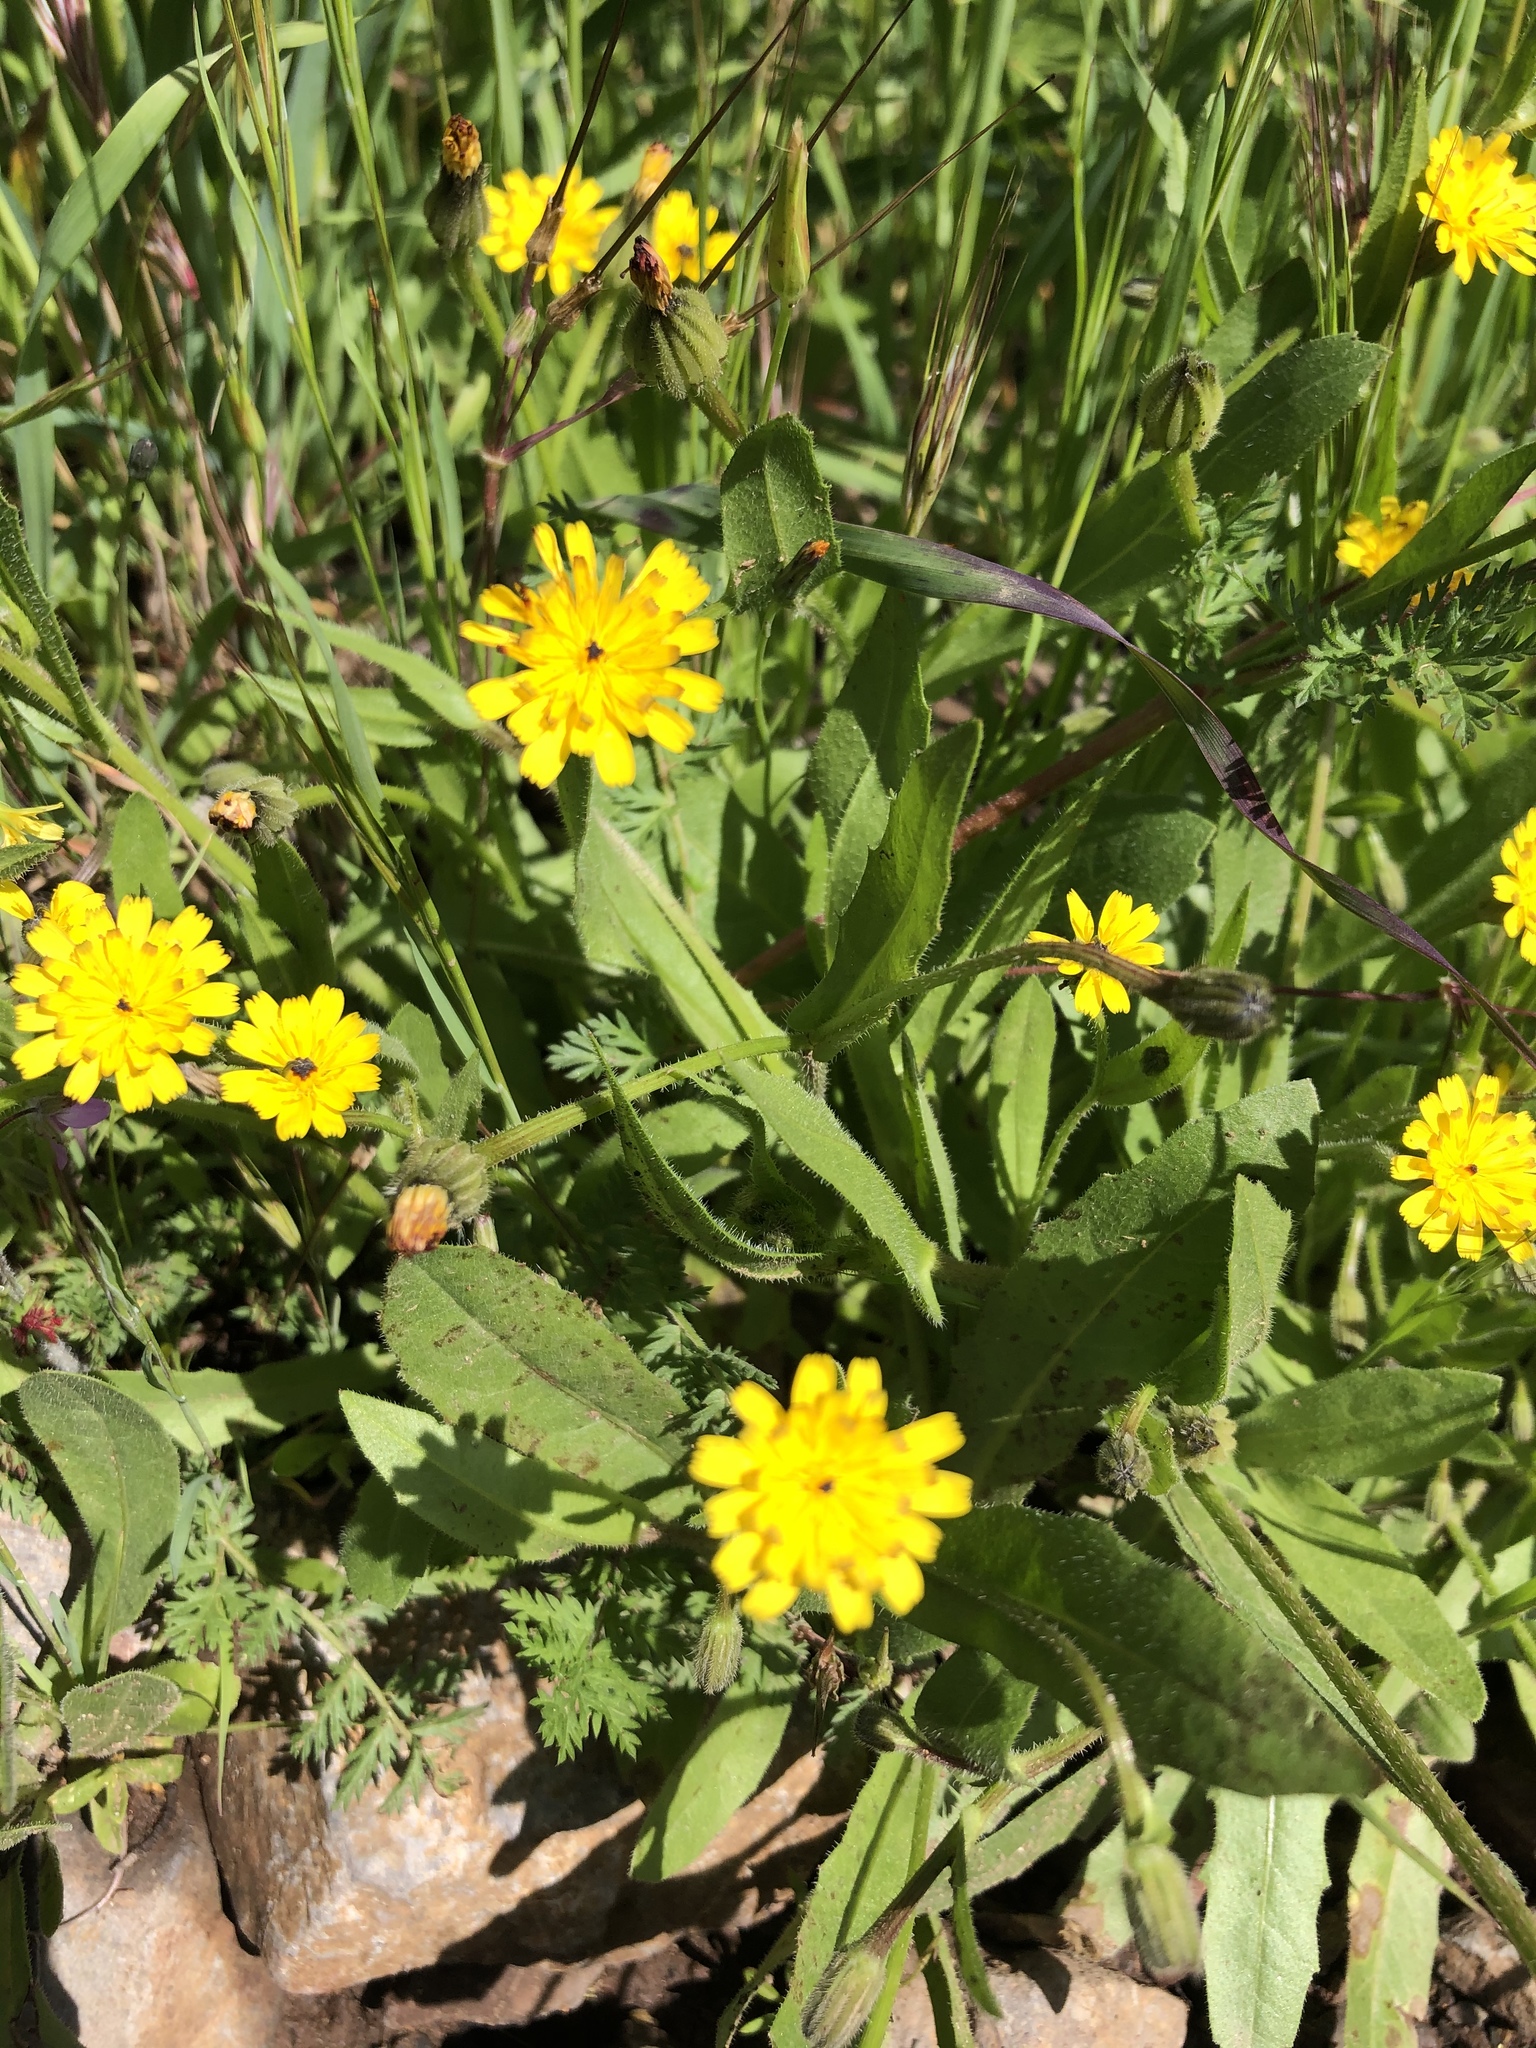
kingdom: Plantae
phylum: Tracheophyta
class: Magnoliopsida
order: Asterales
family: Asteraceae
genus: Hedypnois
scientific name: Hedypnois rhagadioloides
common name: Cretan weed
